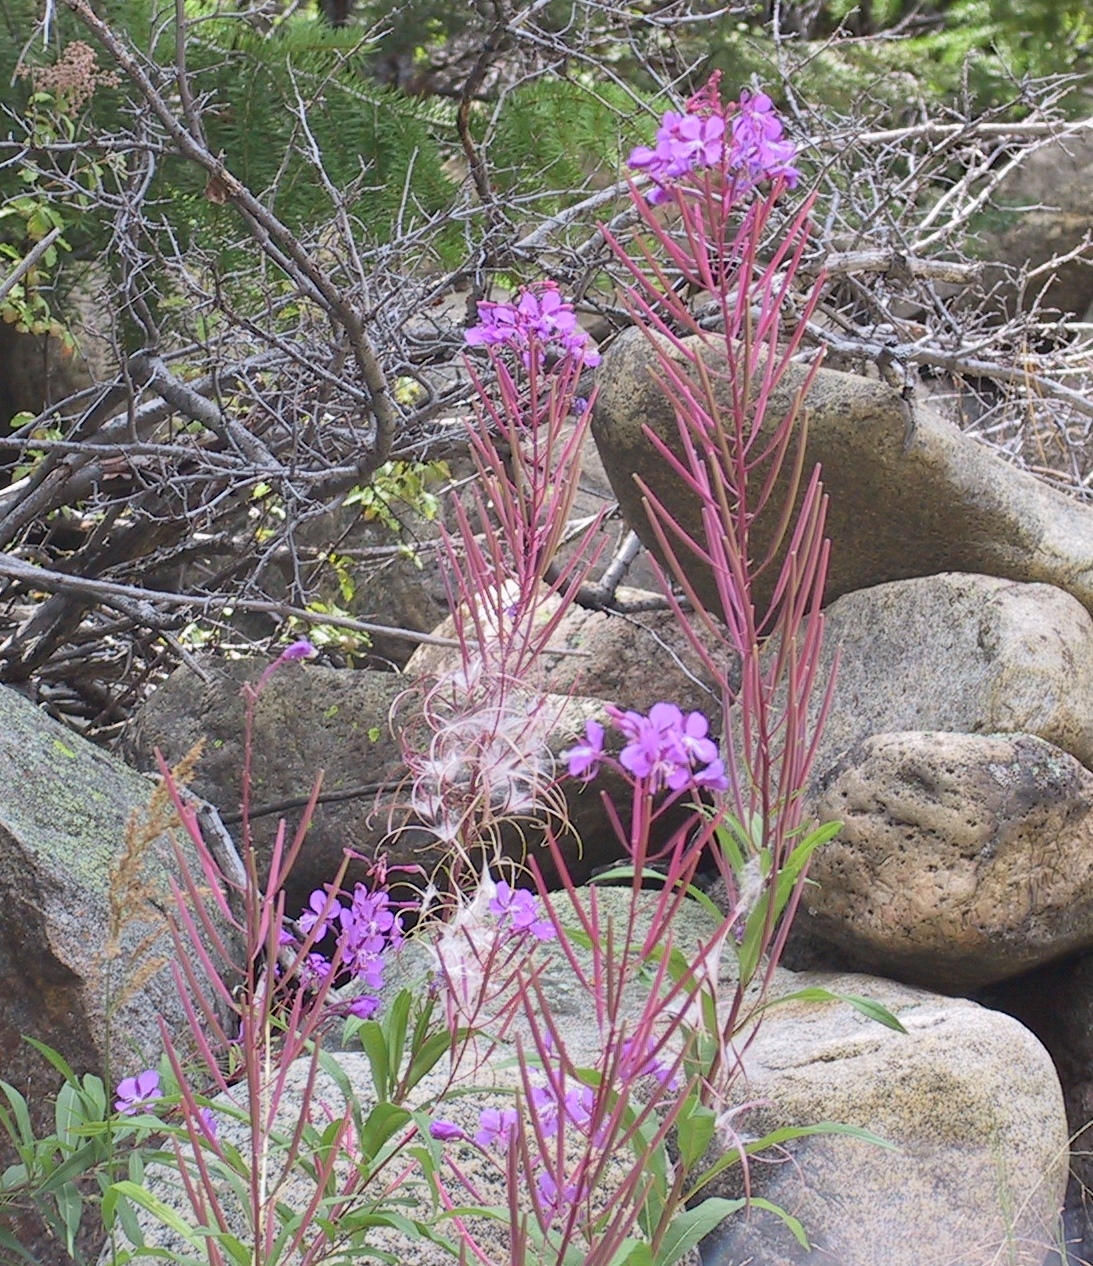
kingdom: Plantae
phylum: Tracheophyta
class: Magnoliopsida
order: Myrtales
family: Onagraceae
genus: Chamaenerion
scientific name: Chamaenerion angustifolium
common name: Fireweed
